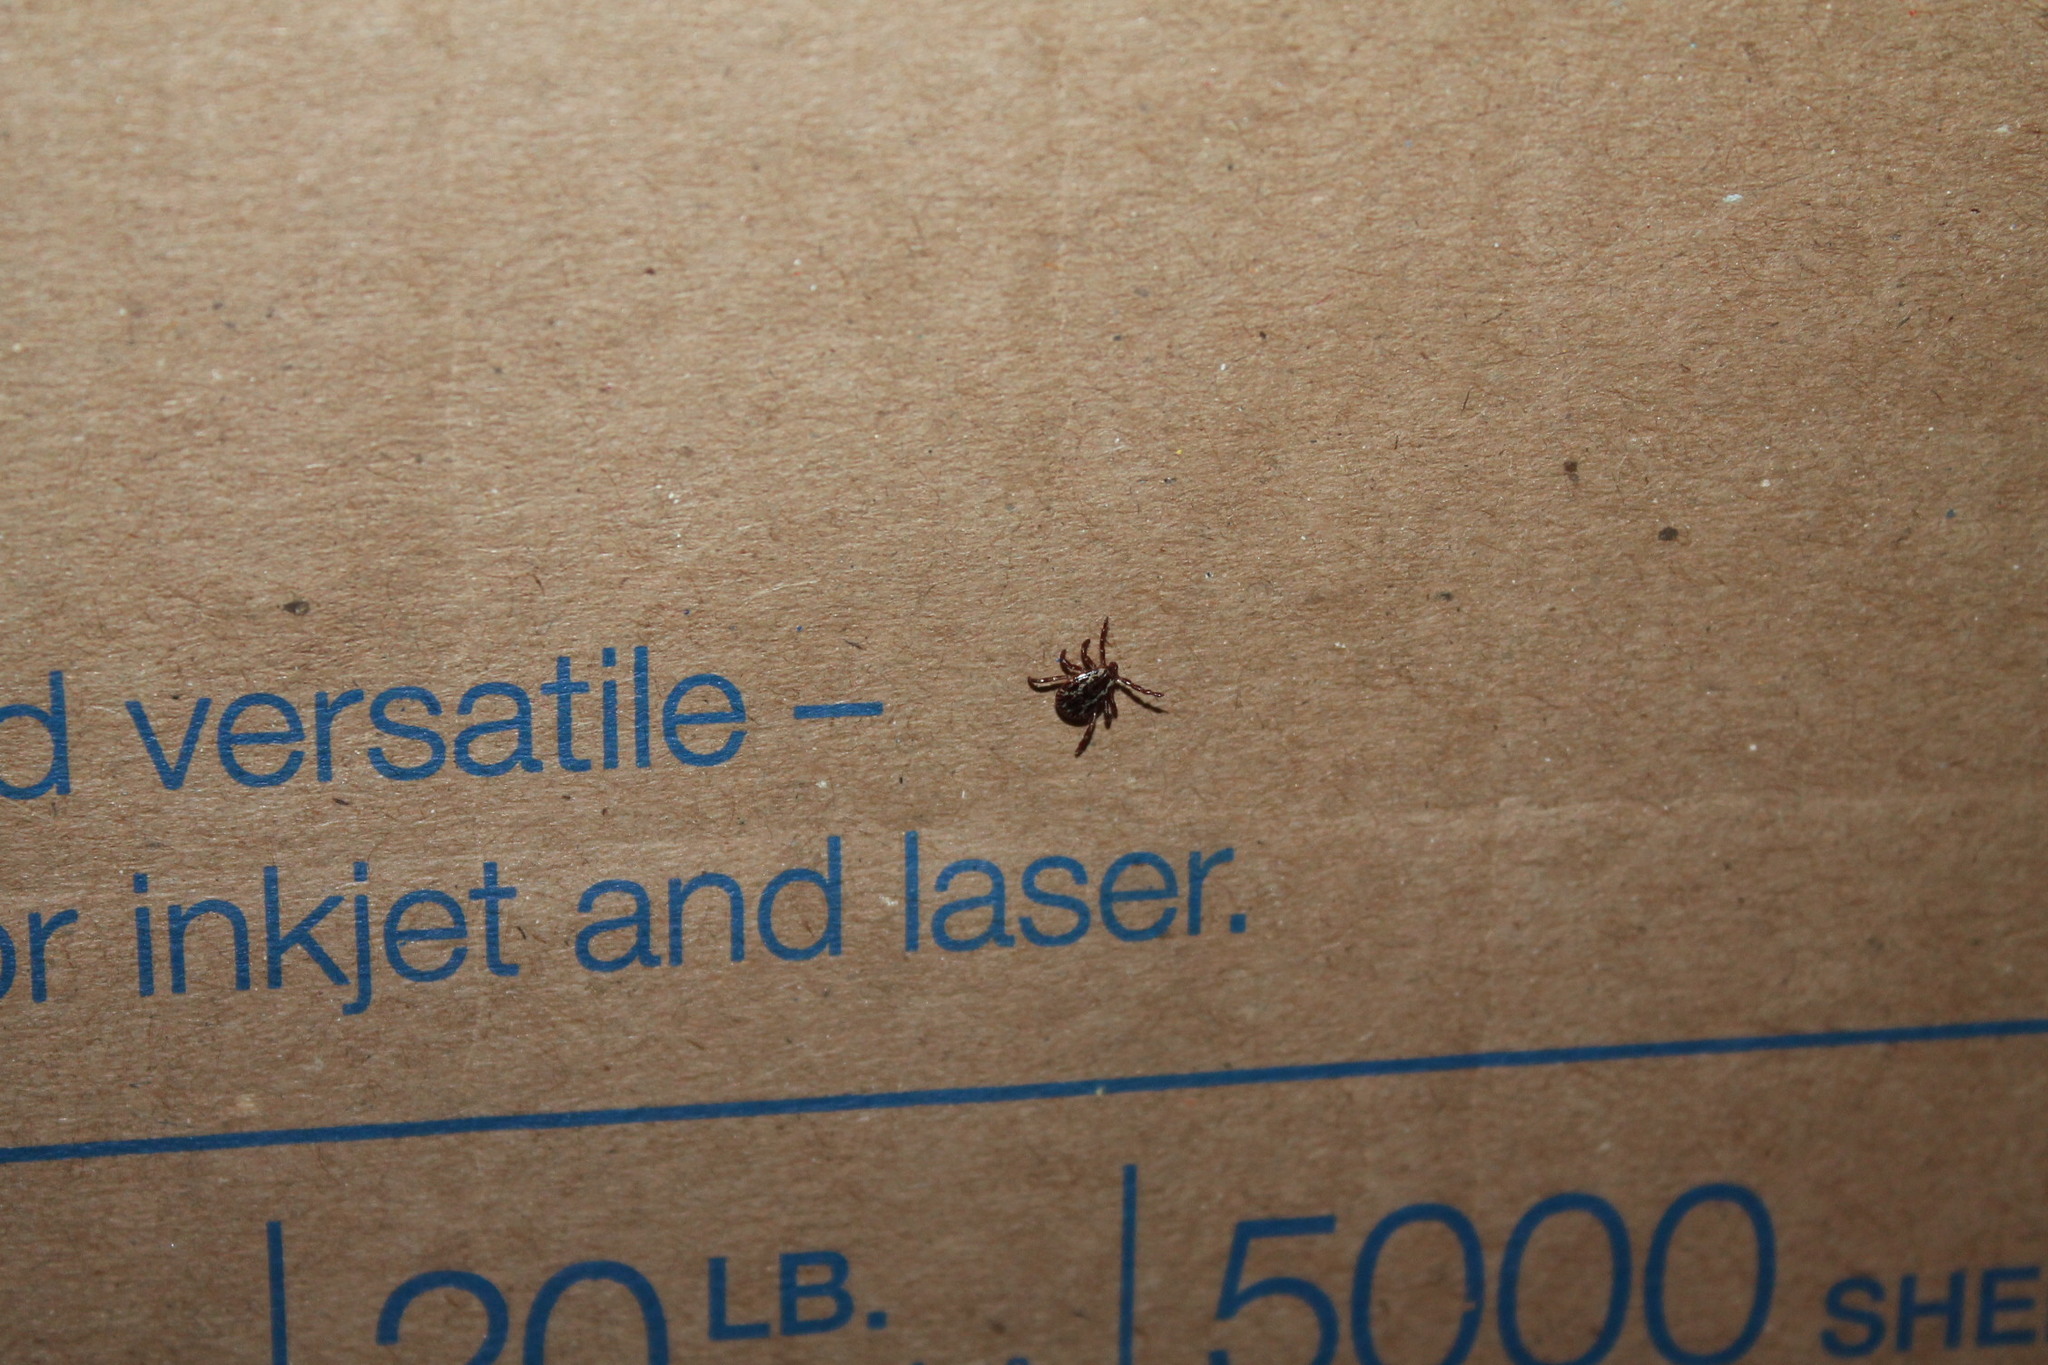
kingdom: Animalia
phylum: Arthropoda
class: Arachnida
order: Ixodida
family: Ixodidae
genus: Dermacentor
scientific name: Dermacentor variabilis
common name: American dog tick
